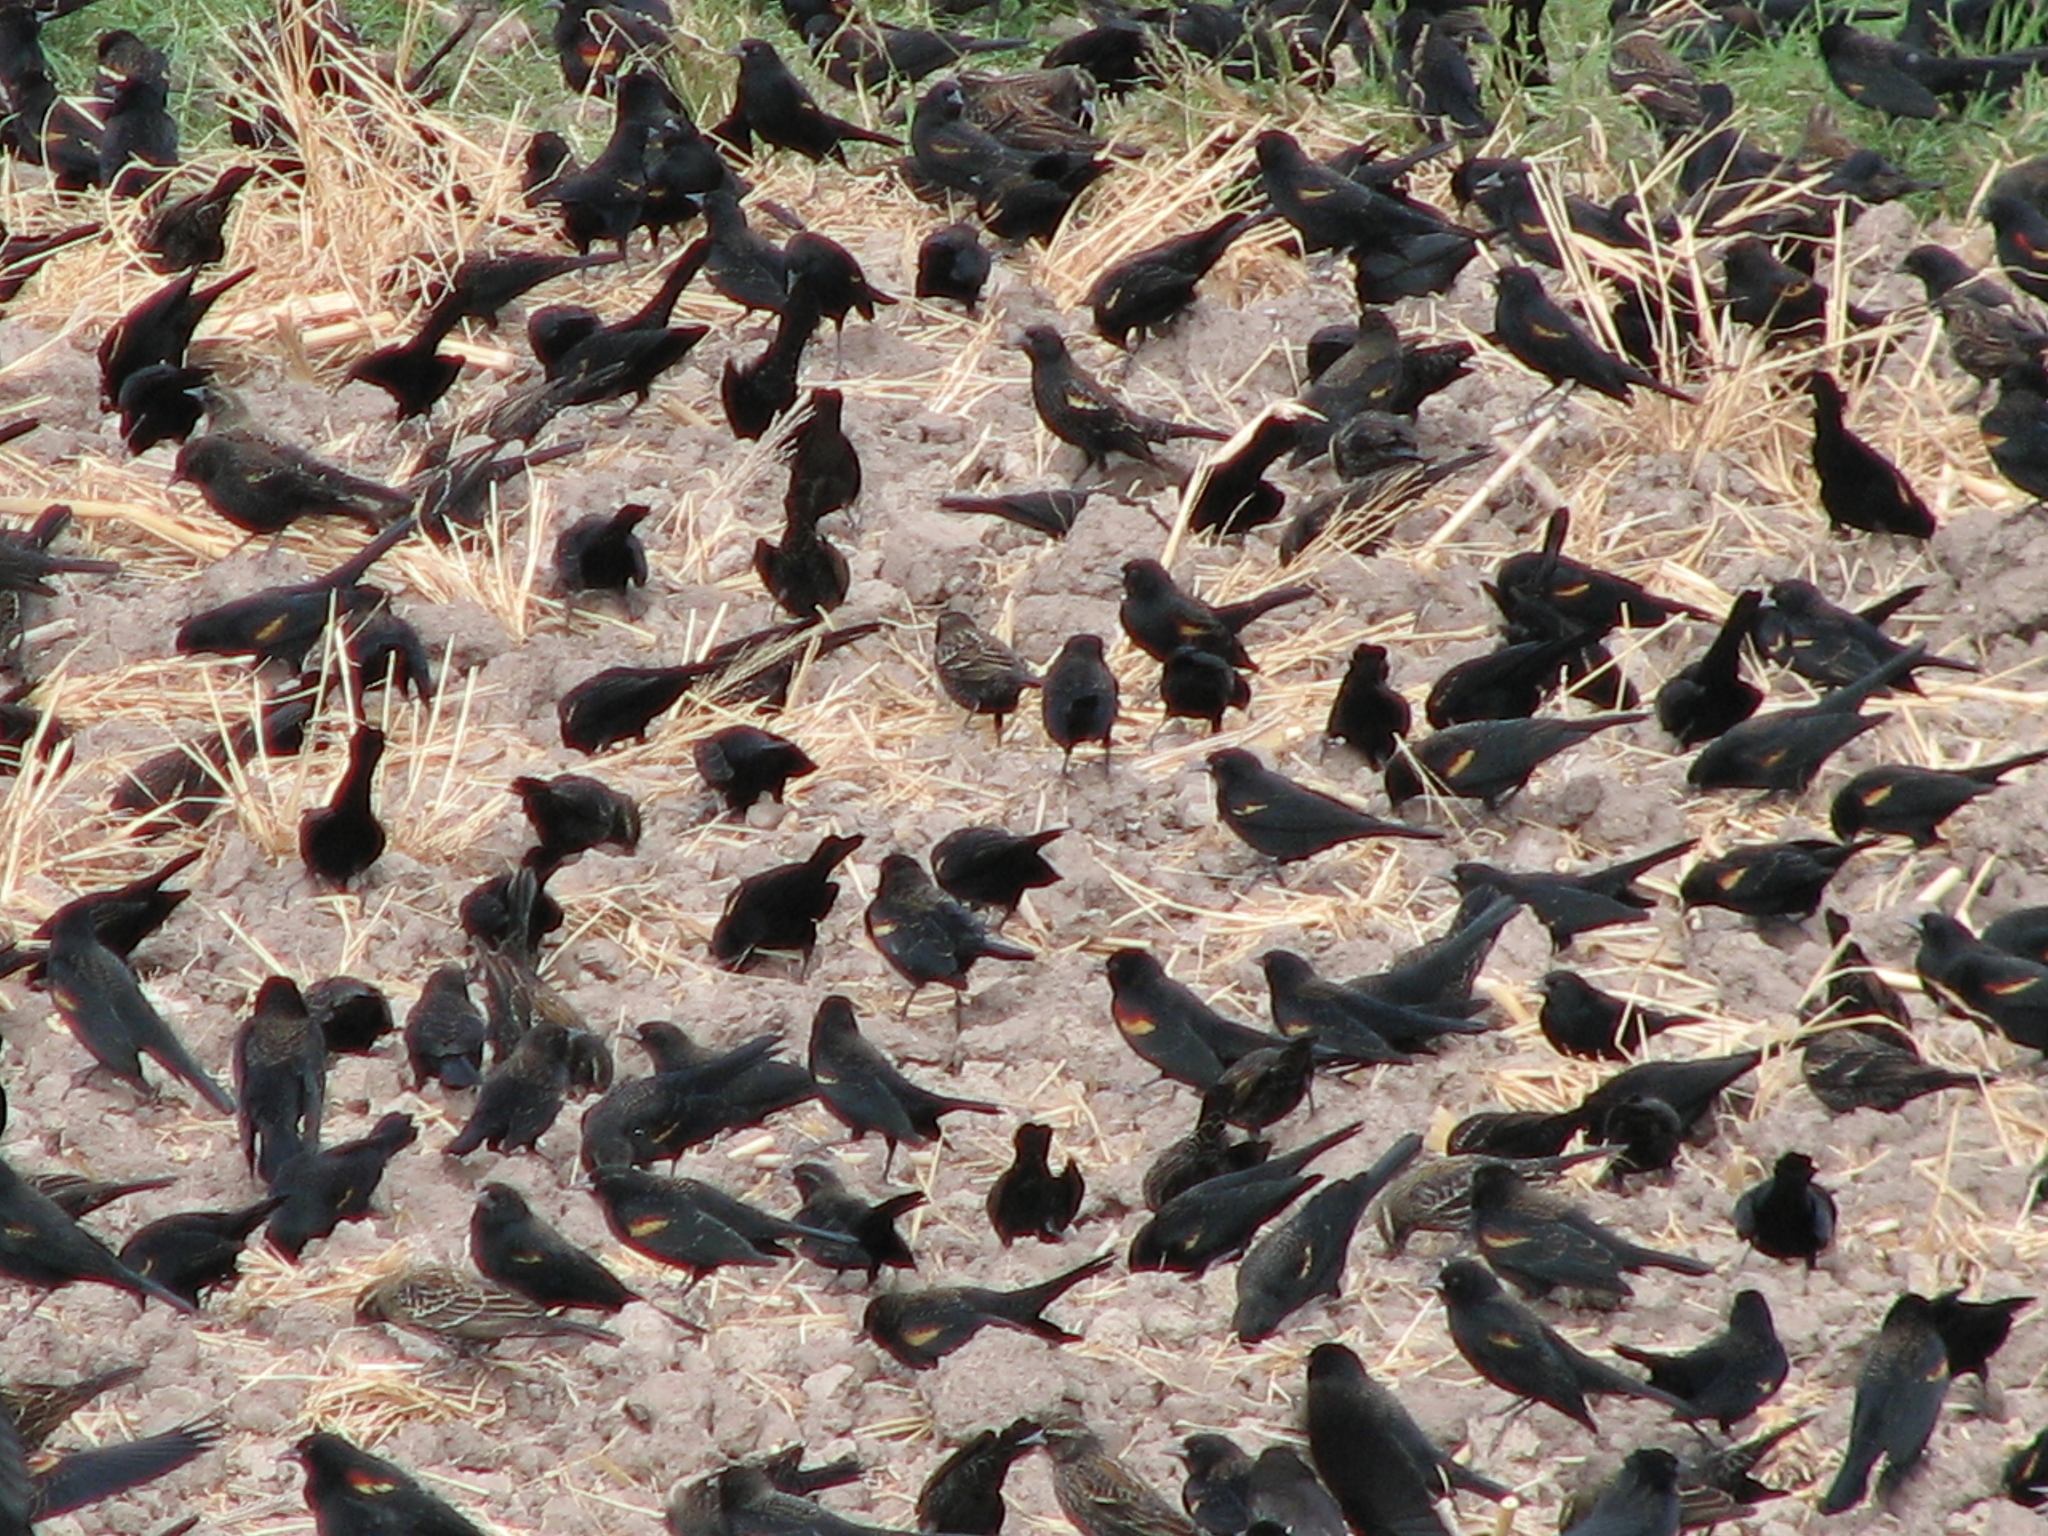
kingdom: Animalia
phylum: Chordata
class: Aves
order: Passeriformes
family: Icteridae
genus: Agelaius
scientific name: Agelaius phoeniceus
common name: Red-winged blackbird
